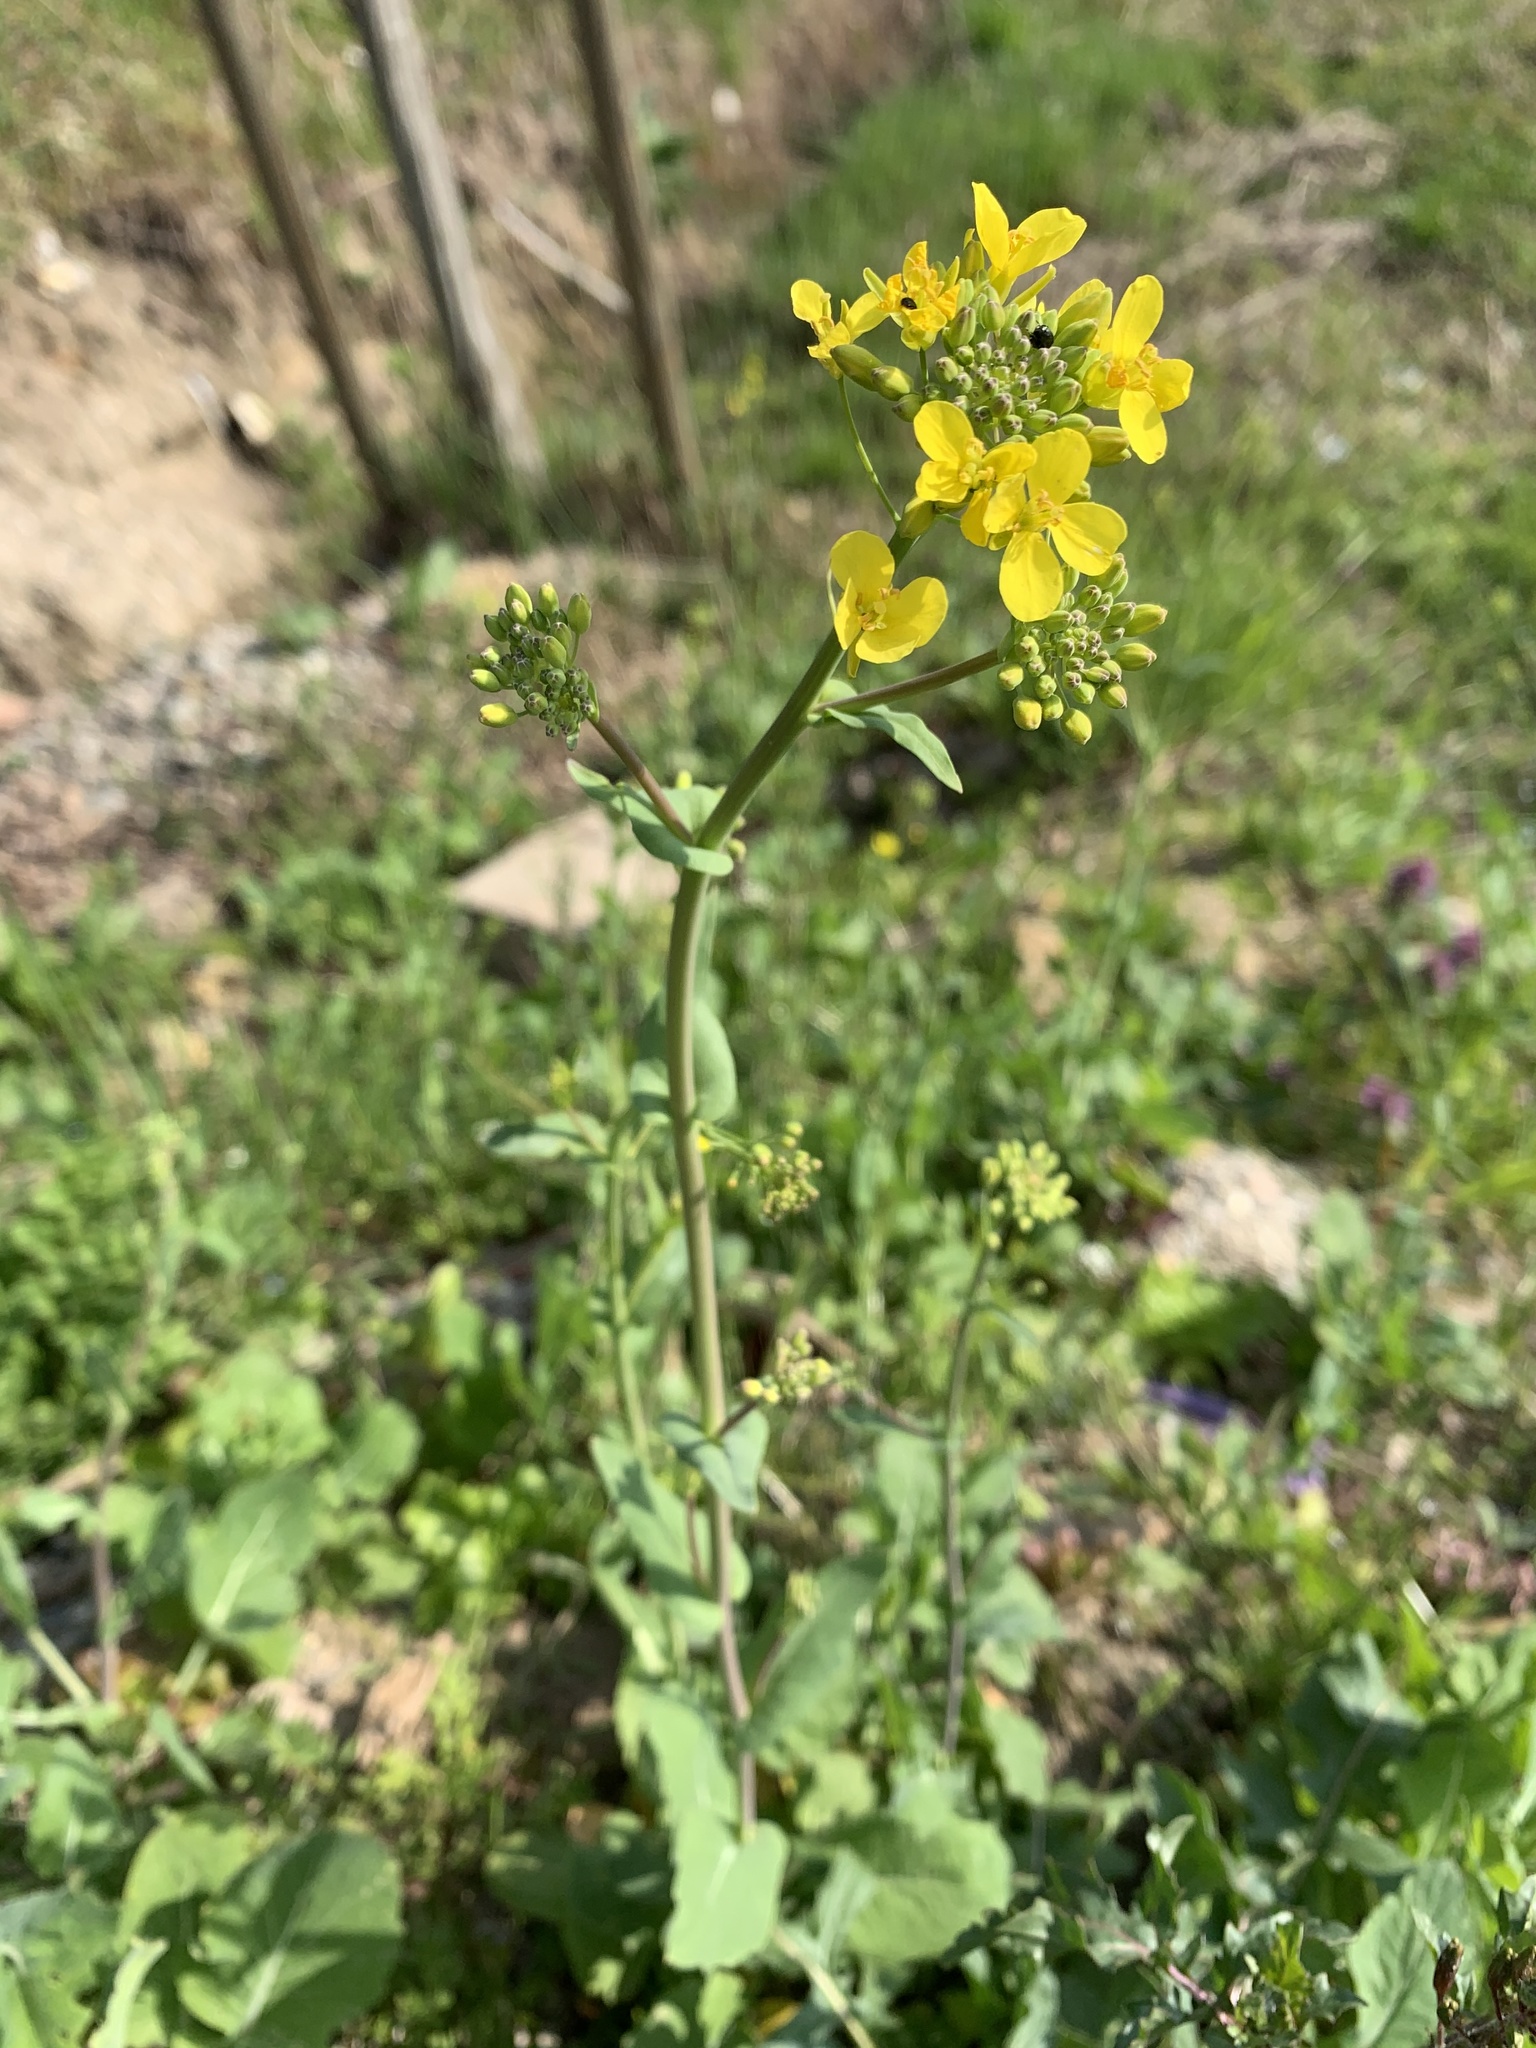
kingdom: Plantae
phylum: Tracheophyta
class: Magnoliopsida
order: Brassicales
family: Brassicaceae
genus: Brassica
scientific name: Brassica rapa
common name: Field mustard
